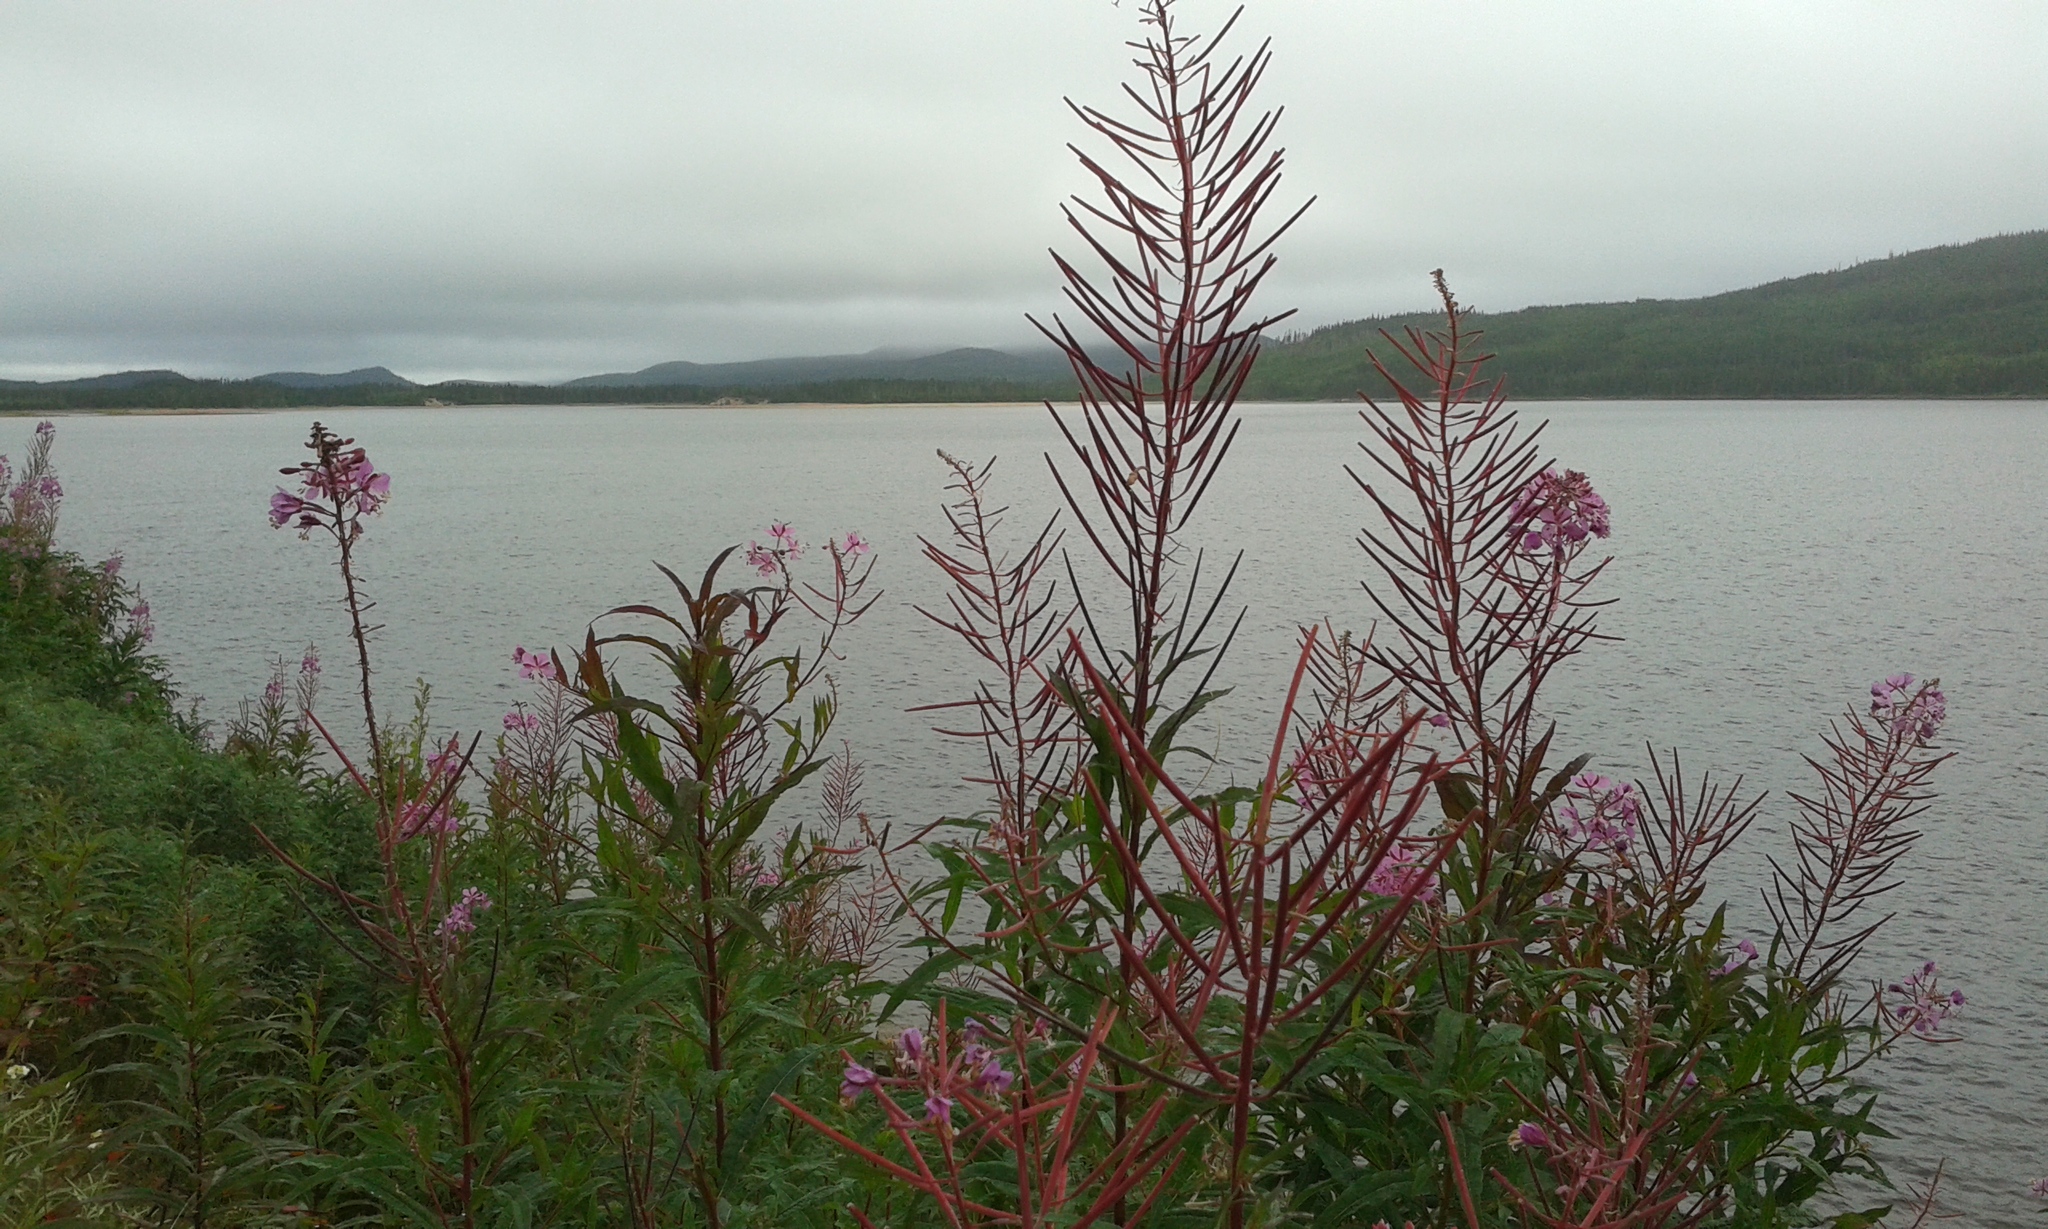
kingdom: Plantae
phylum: Tracheophyta
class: Magnoliopsida
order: Myrtales
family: Onagraceae
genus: Chamaenerion
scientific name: Chamaenerion angustifolium
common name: Fireweed
